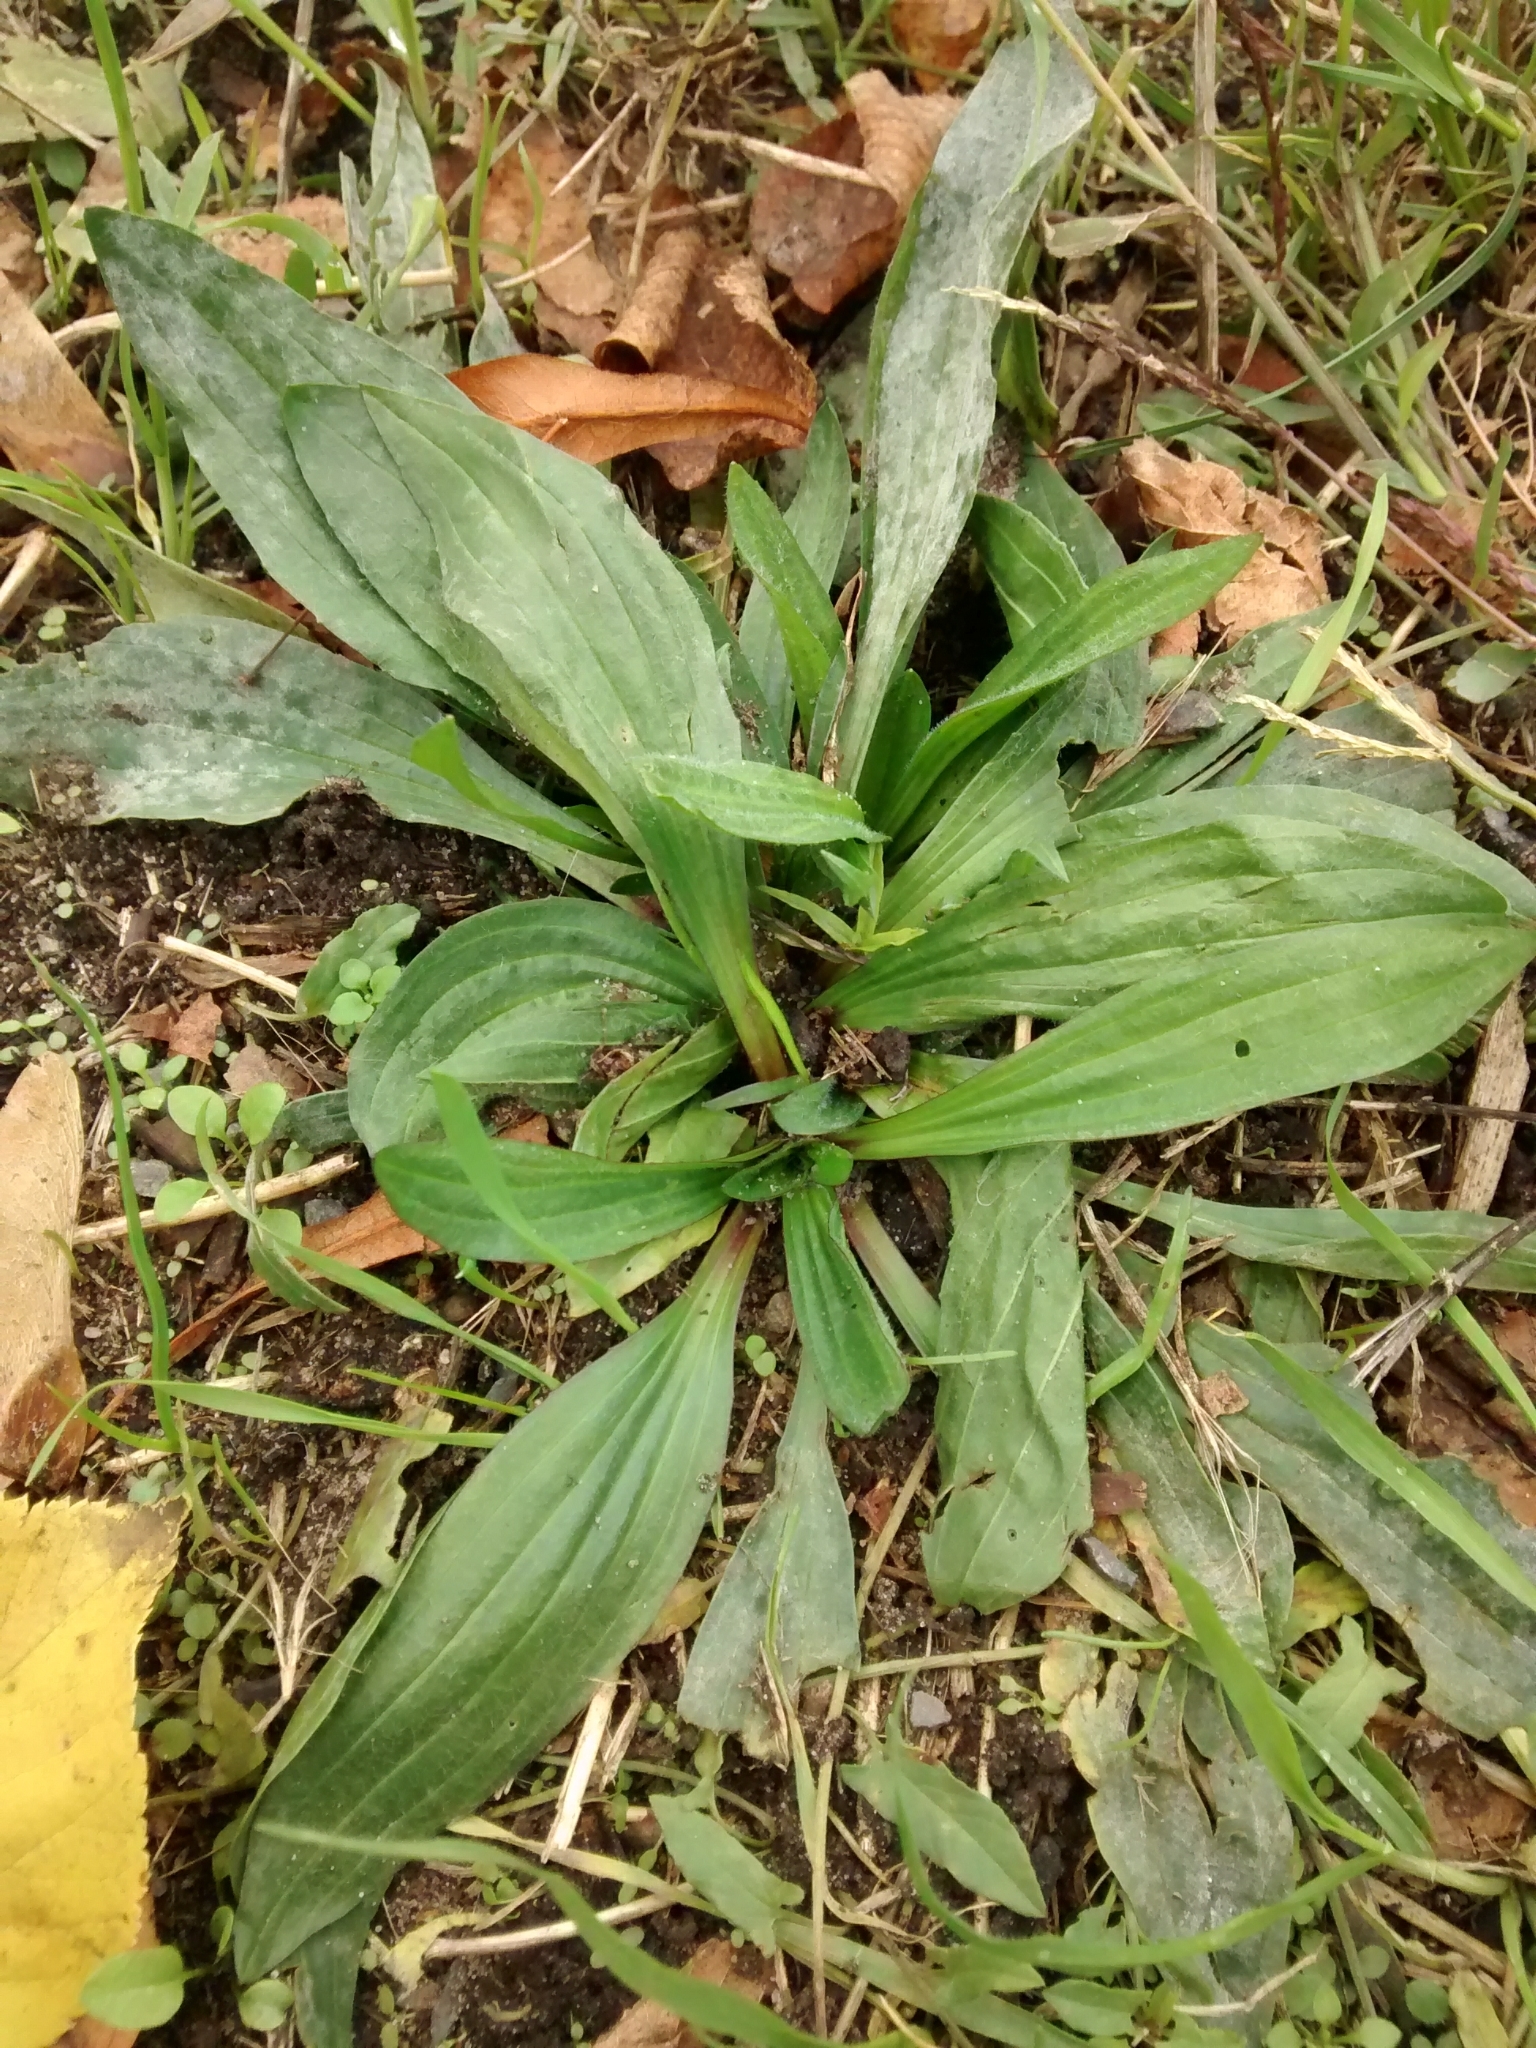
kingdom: Plantae
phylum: Tracheophyta
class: Magnoliopsida
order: Lamiales
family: Plantaginaceae
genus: Plantago
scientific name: Plantago lanceolata
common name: Ribwort plantain
